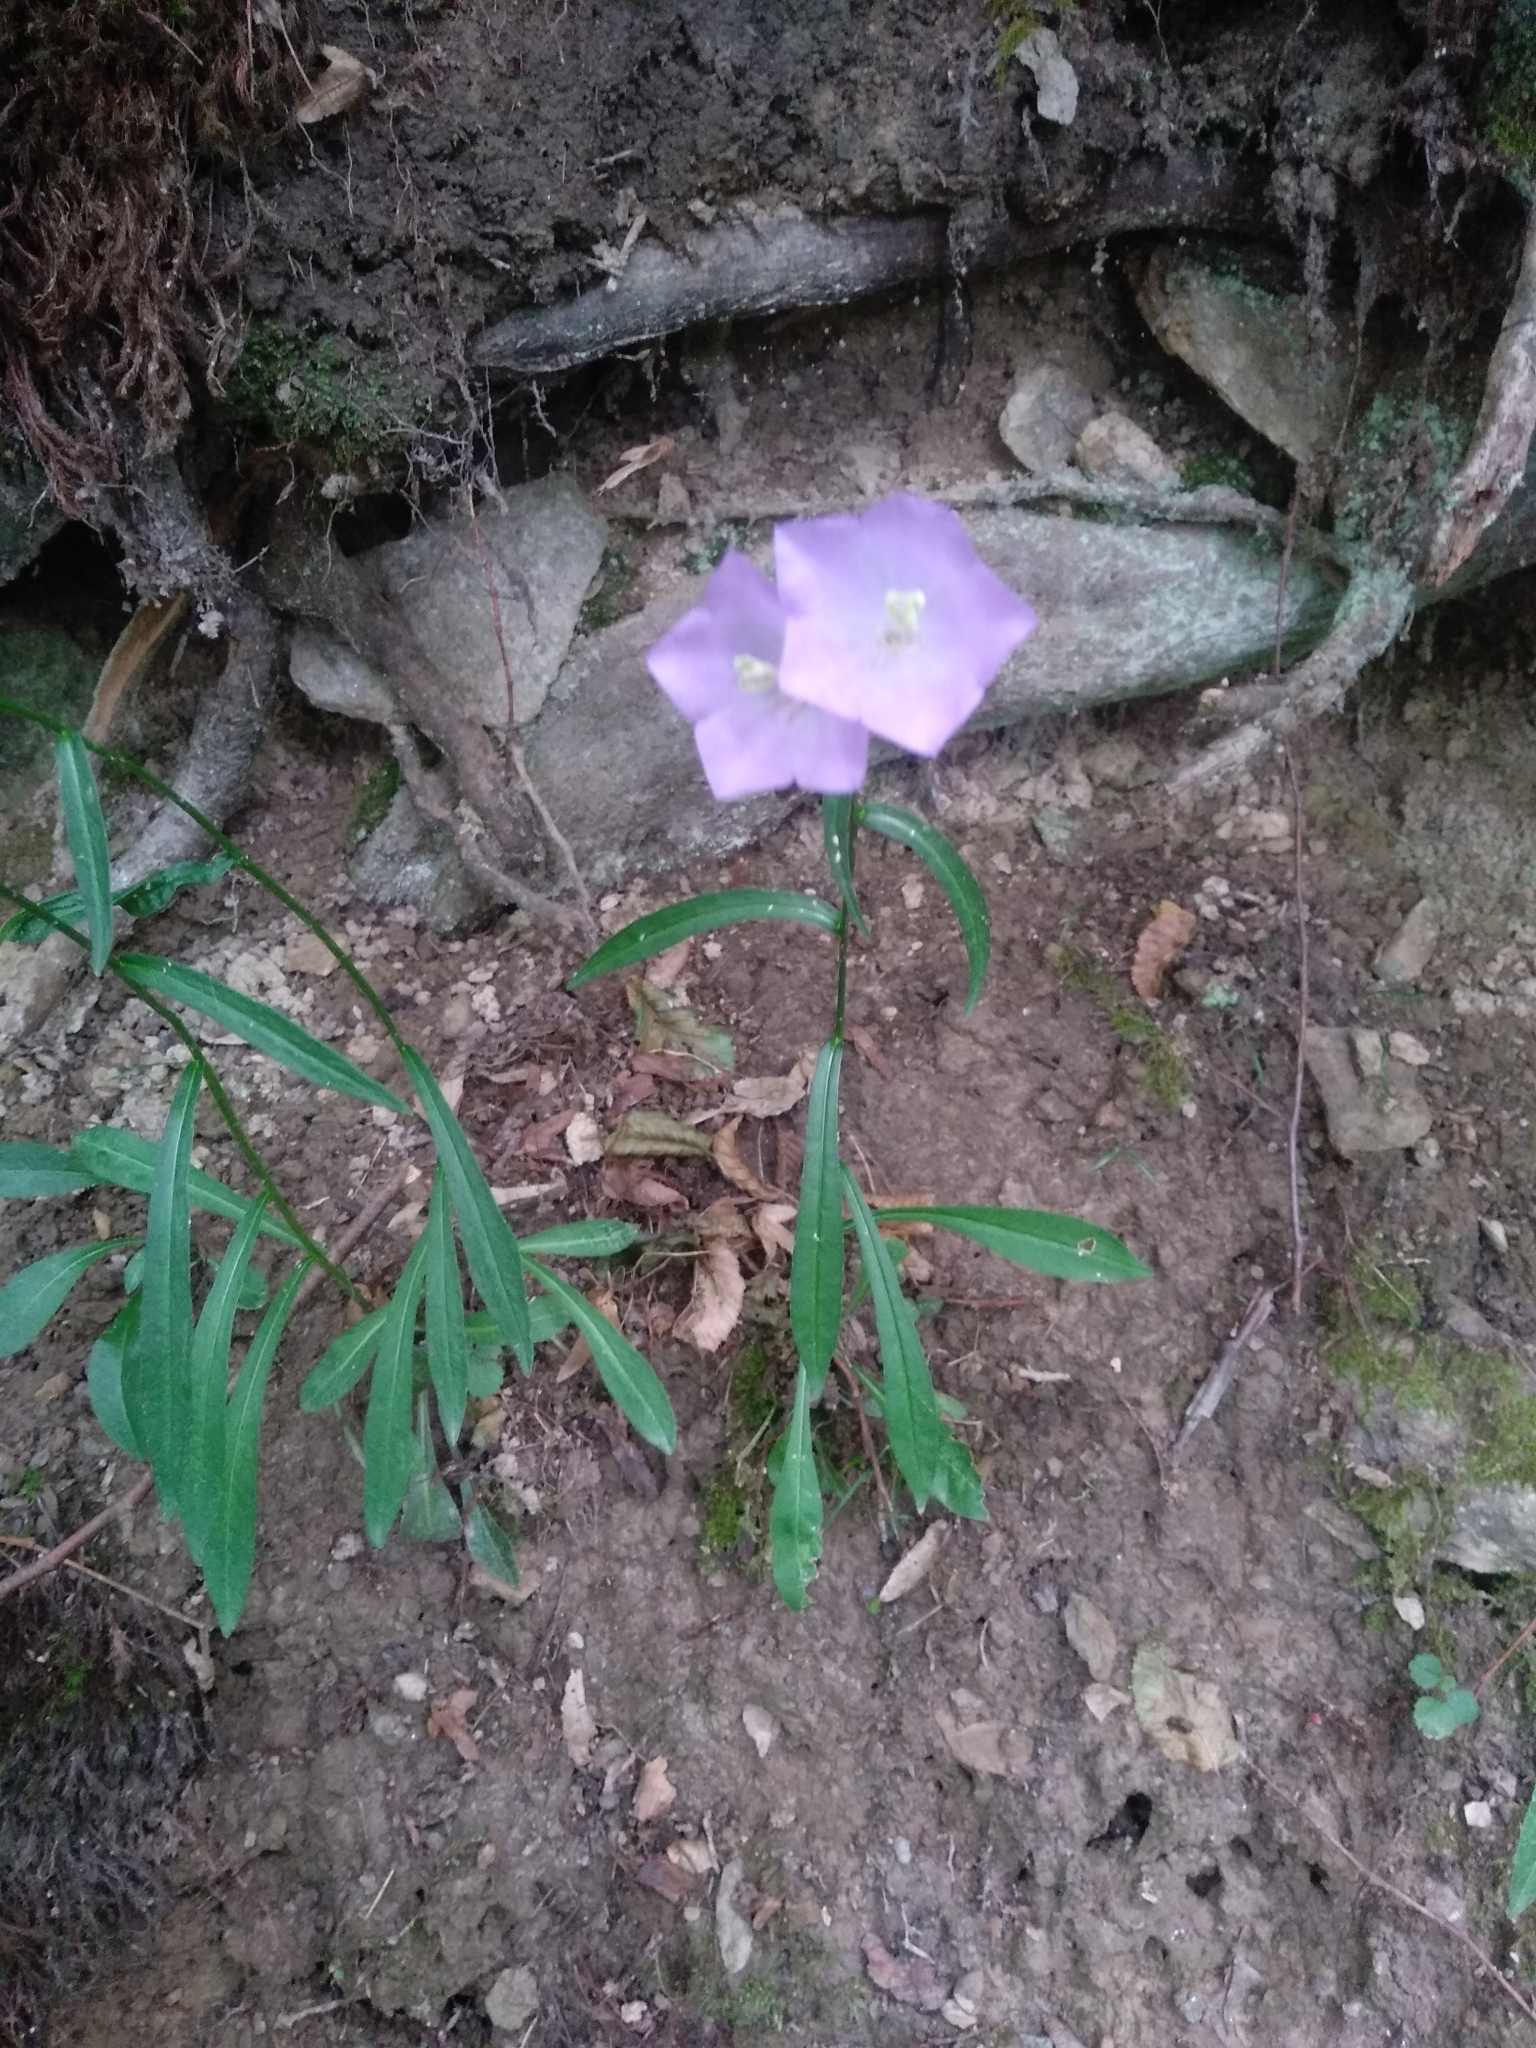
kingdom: Plantae
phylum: Tracheophyta
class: Magnoliopsida
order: Asterales
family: Campanulaceae
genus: Campanula
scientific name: Campanula persicifolia
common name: Peach-leaved bellflower
